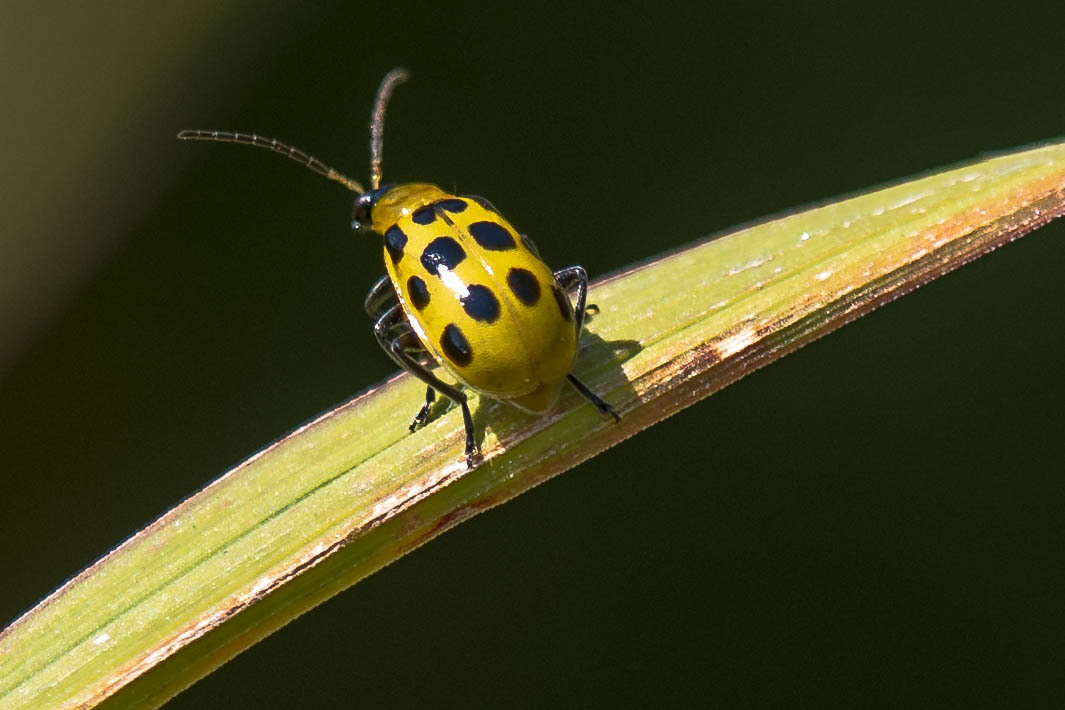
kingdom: Animalia
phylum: Arthropoda
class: Insecta
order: Coleoptera
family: Chrysomelidae
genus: Diabrotica
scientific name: Diabrotica undecimpunctata
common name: Spotted cucumber beetle
